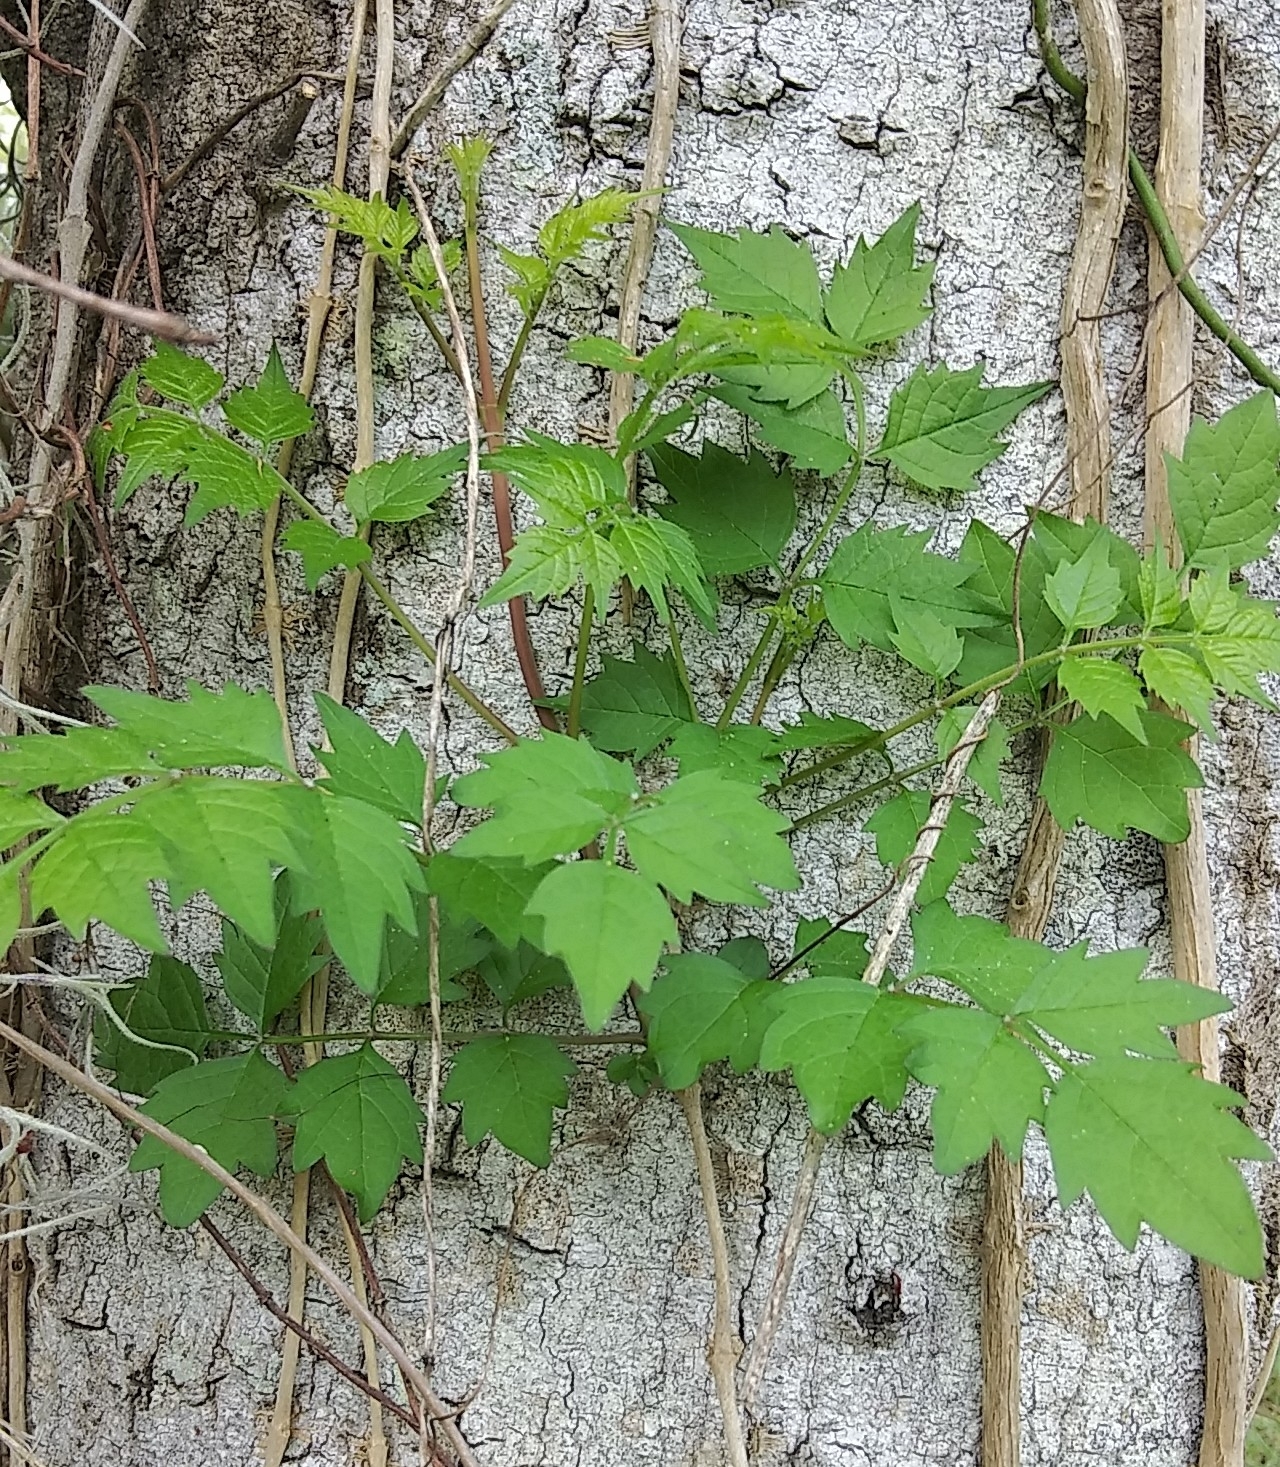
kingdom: Plantae
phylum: Tracheophyta
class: Magnoliopsida
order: Lamiales
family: Bignoniaceae
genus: Campsis
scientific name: Campsis radicans
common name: Trumpet-creeper
